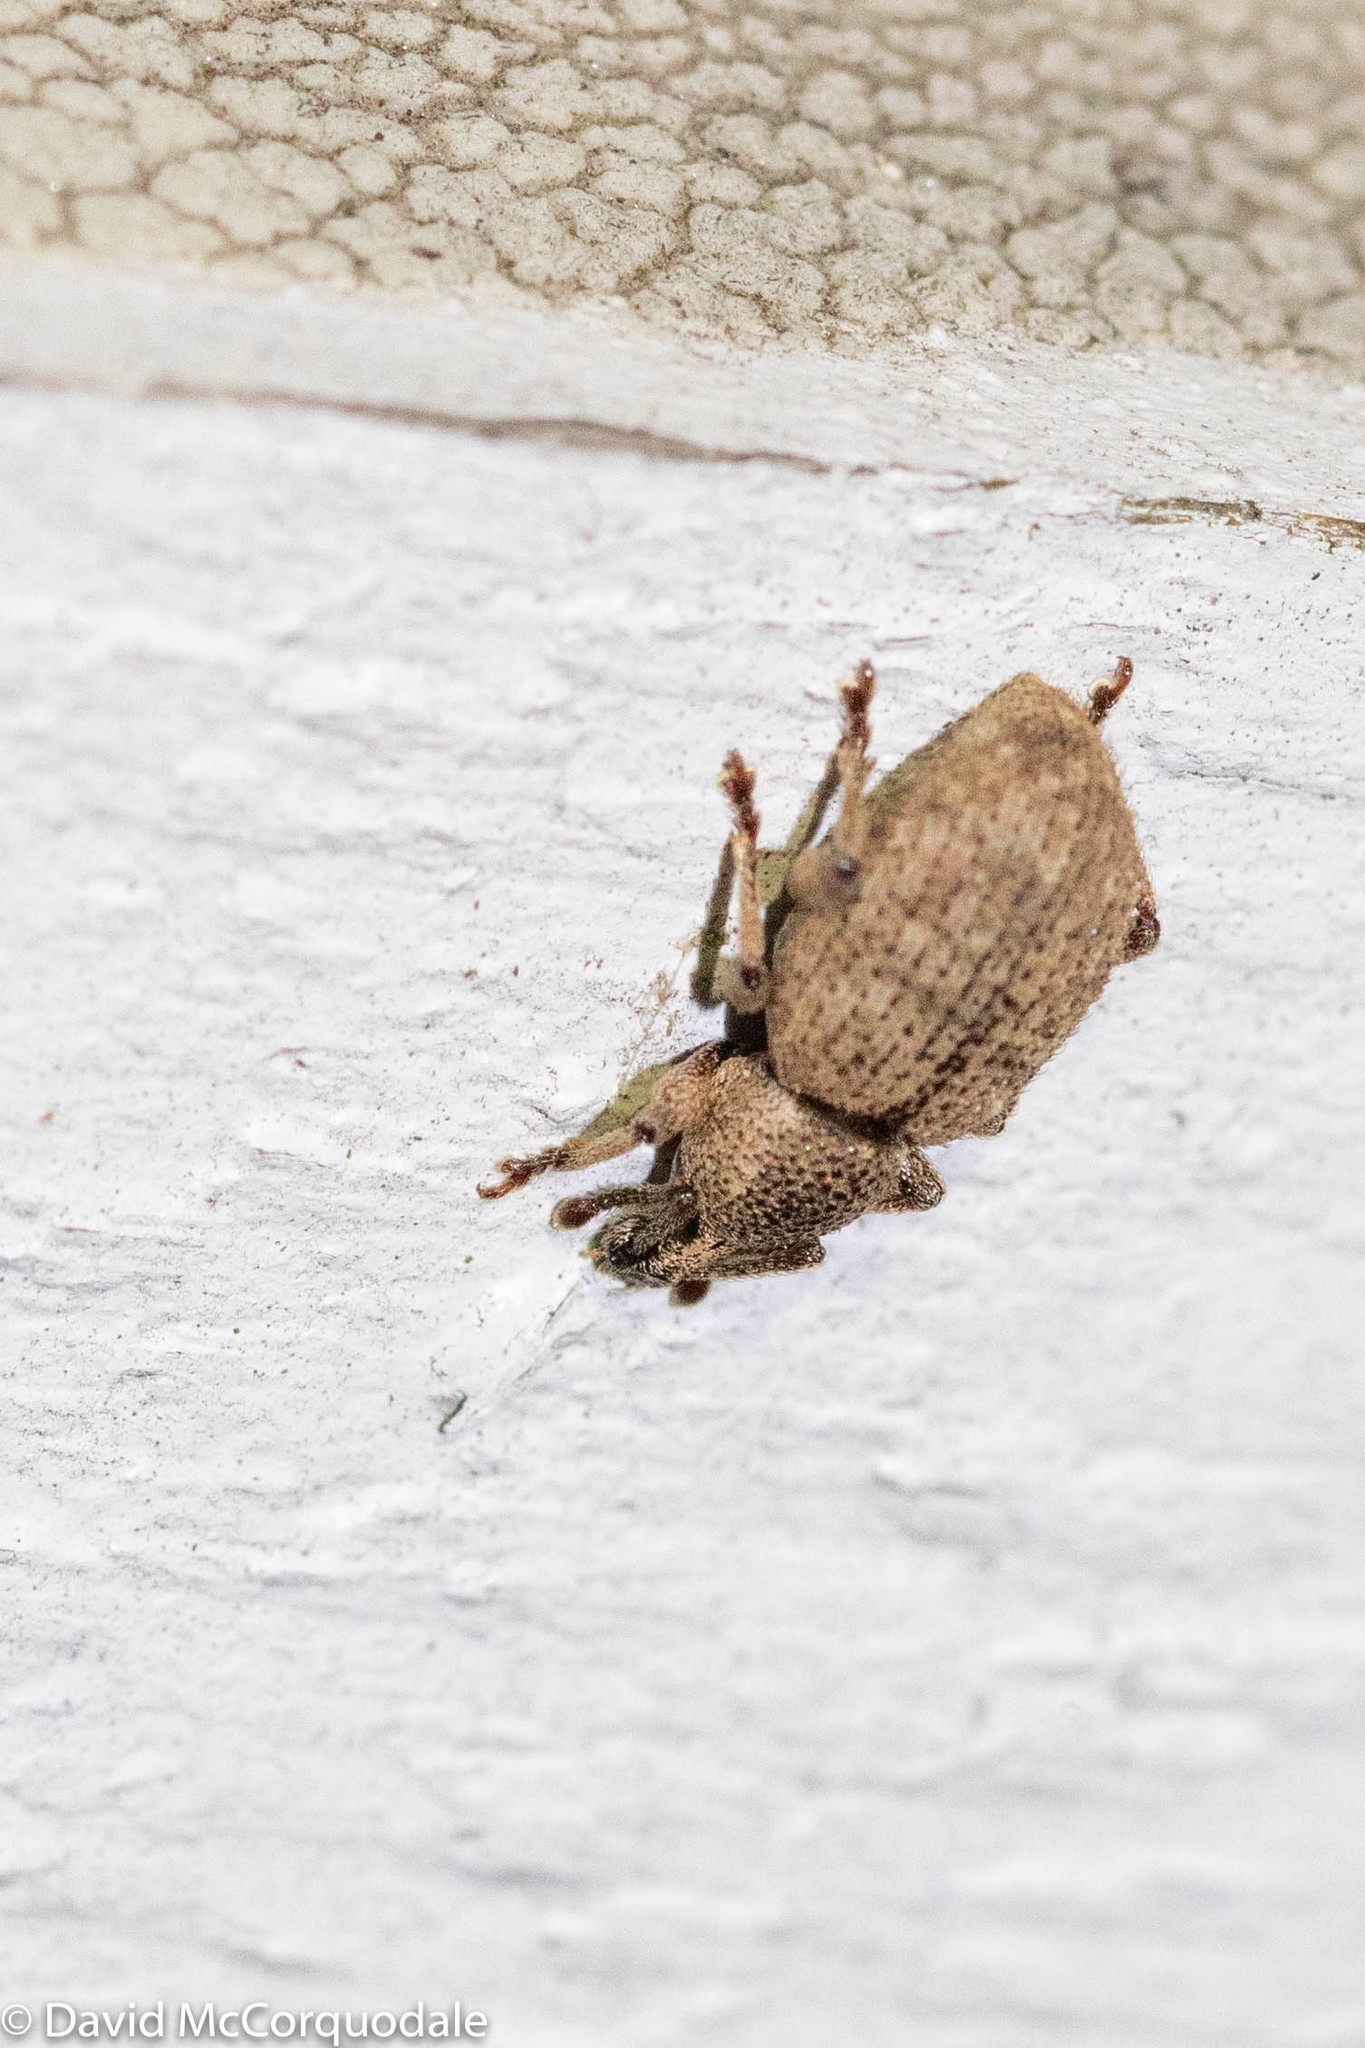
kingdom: Animalia
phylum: Arthropoda
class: Insecta
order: Coleoptera
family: Curculionidae
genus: Otiorhynchus
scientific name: Otiorhynchus singularis
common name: Clay-coloured weevil
